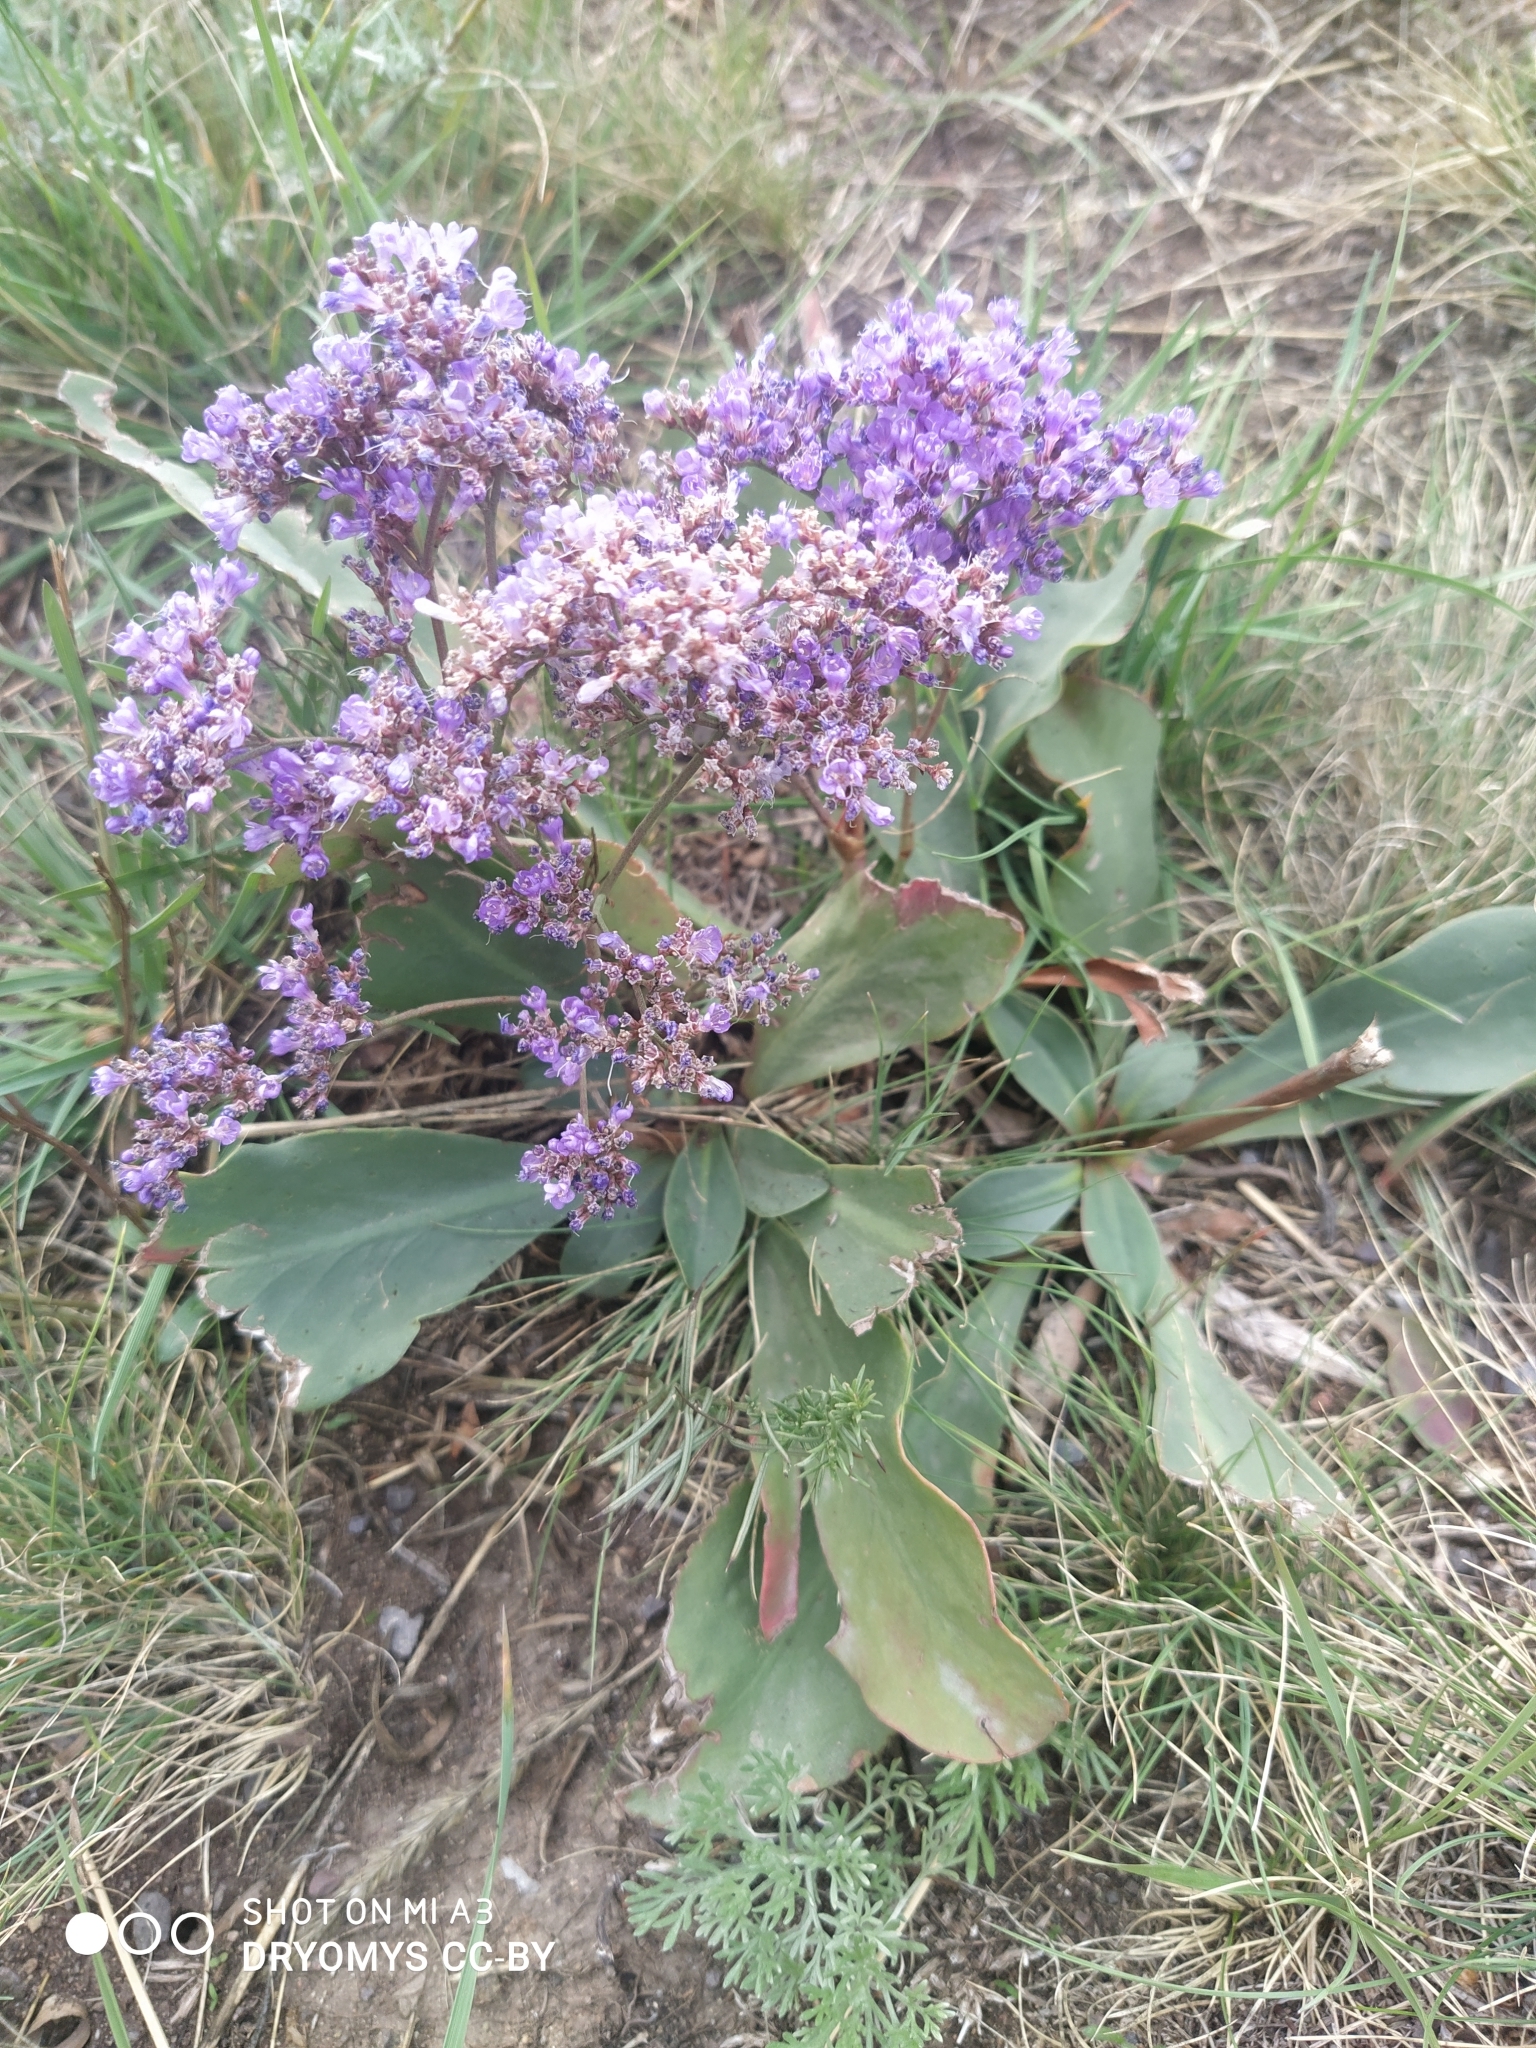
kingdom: Plantae
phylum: Tracheophyta
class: Magnoliopsida
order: Caryophyllales
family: Plumbaginaceae
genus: Limonium
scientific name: Limonium gmelini
